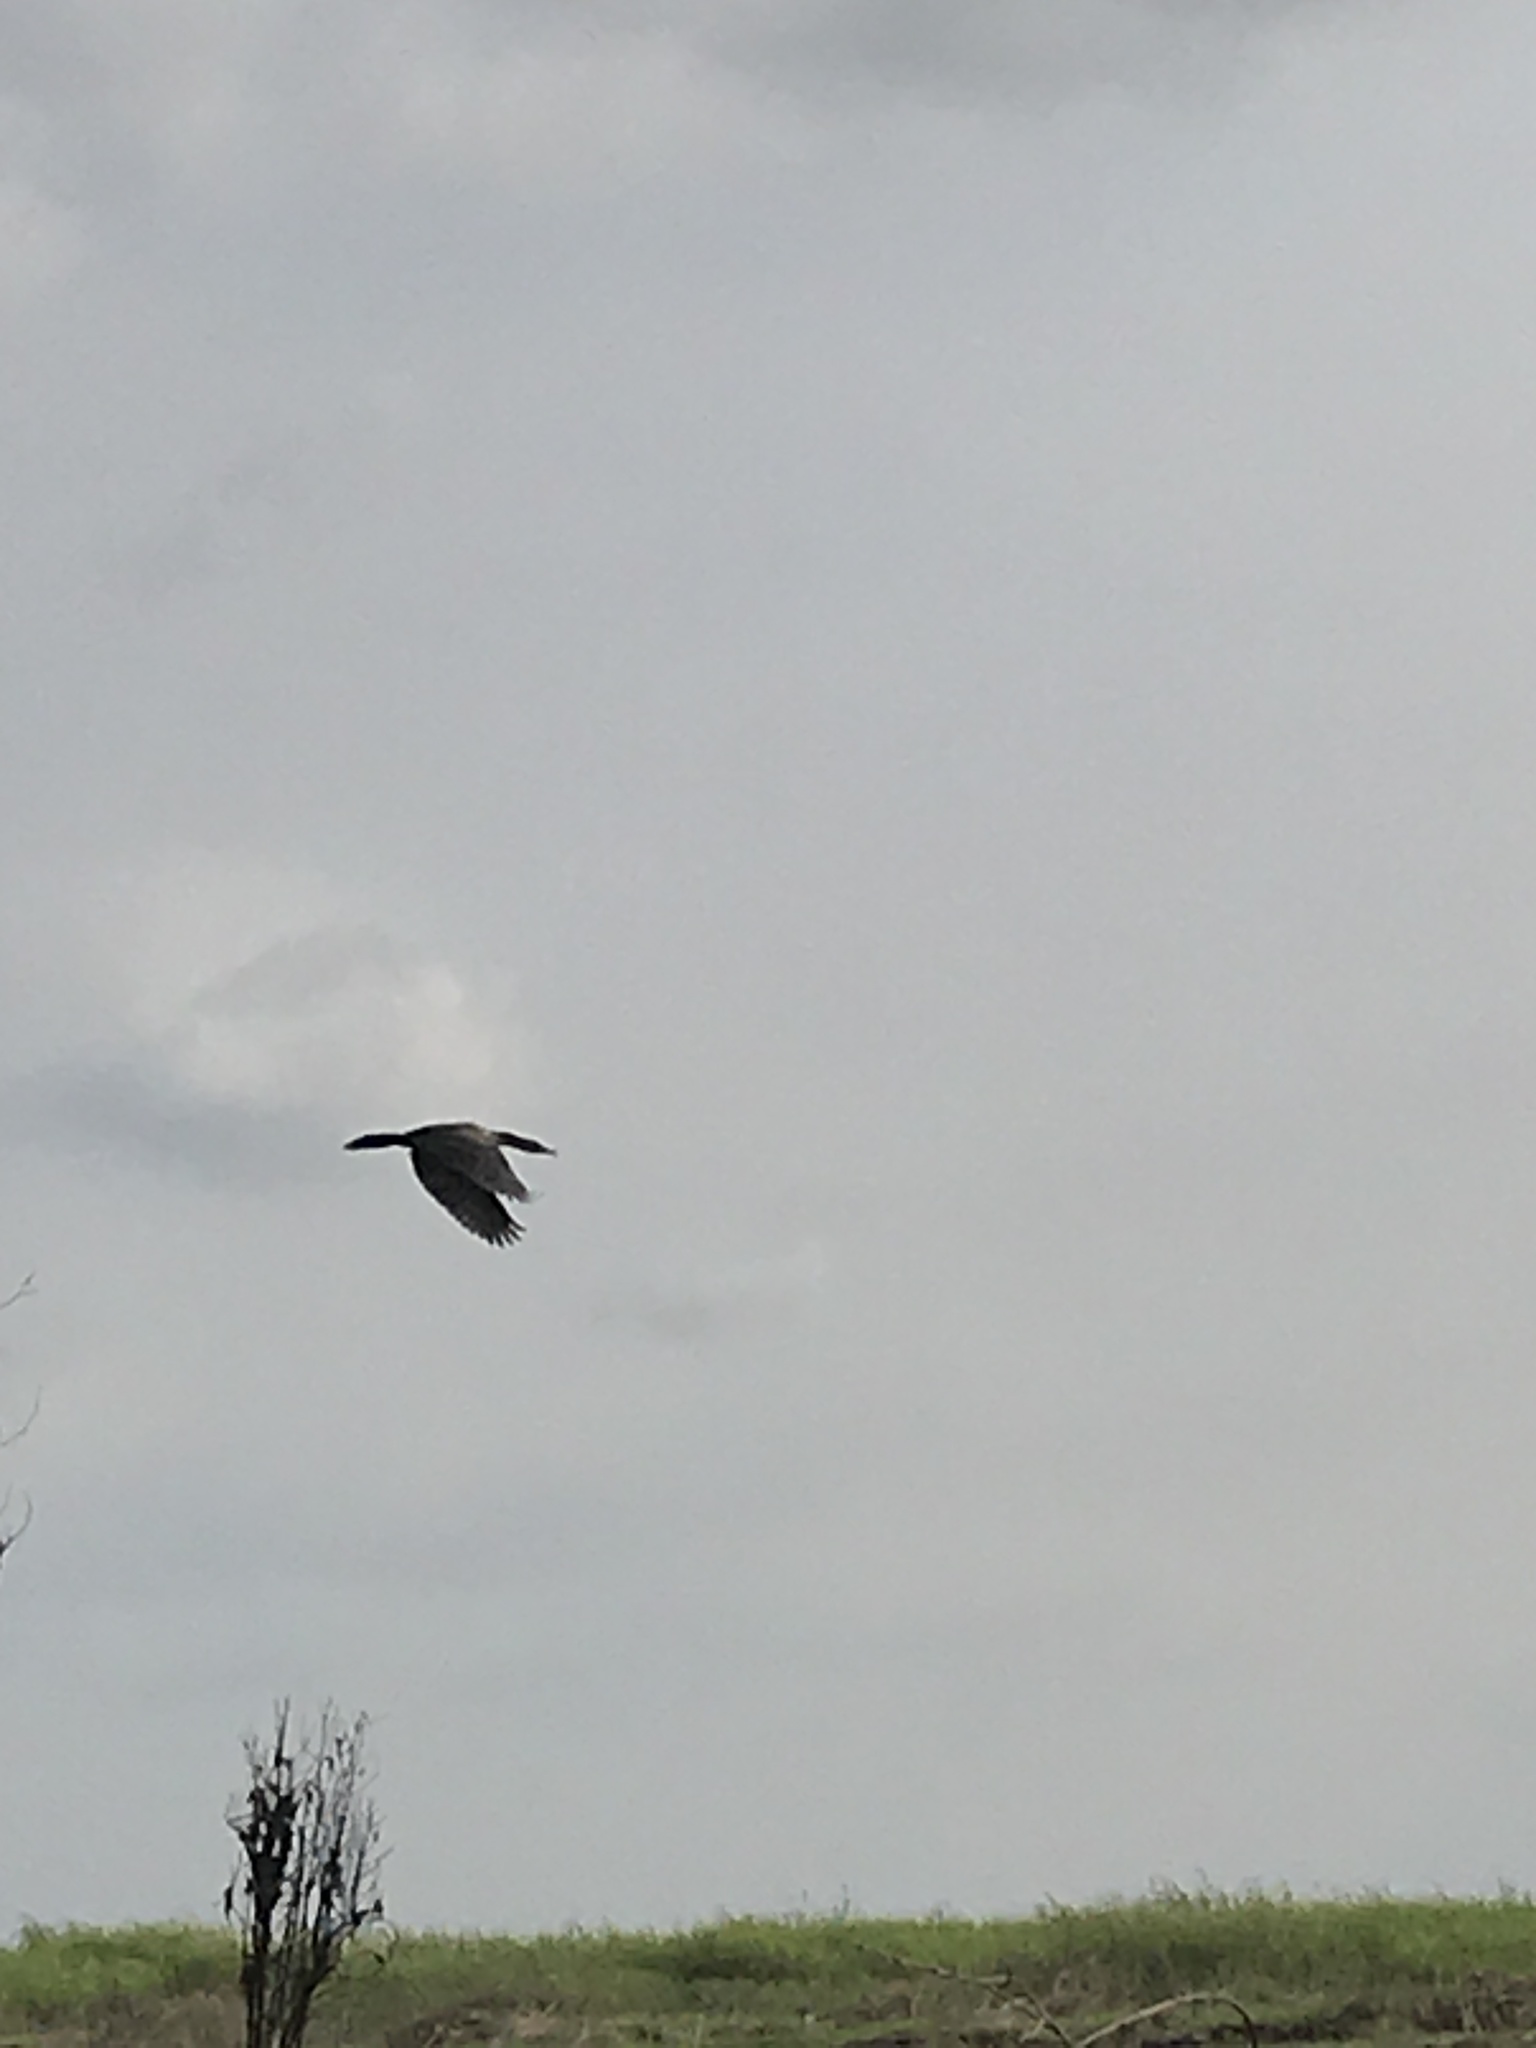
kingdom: Animalia
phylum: Chordata
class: Aves
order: Suliformes
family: Phalacrocoracidae
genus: Microcarbo
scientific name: Microcarbo africanus
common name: Long-tailed cormorant
